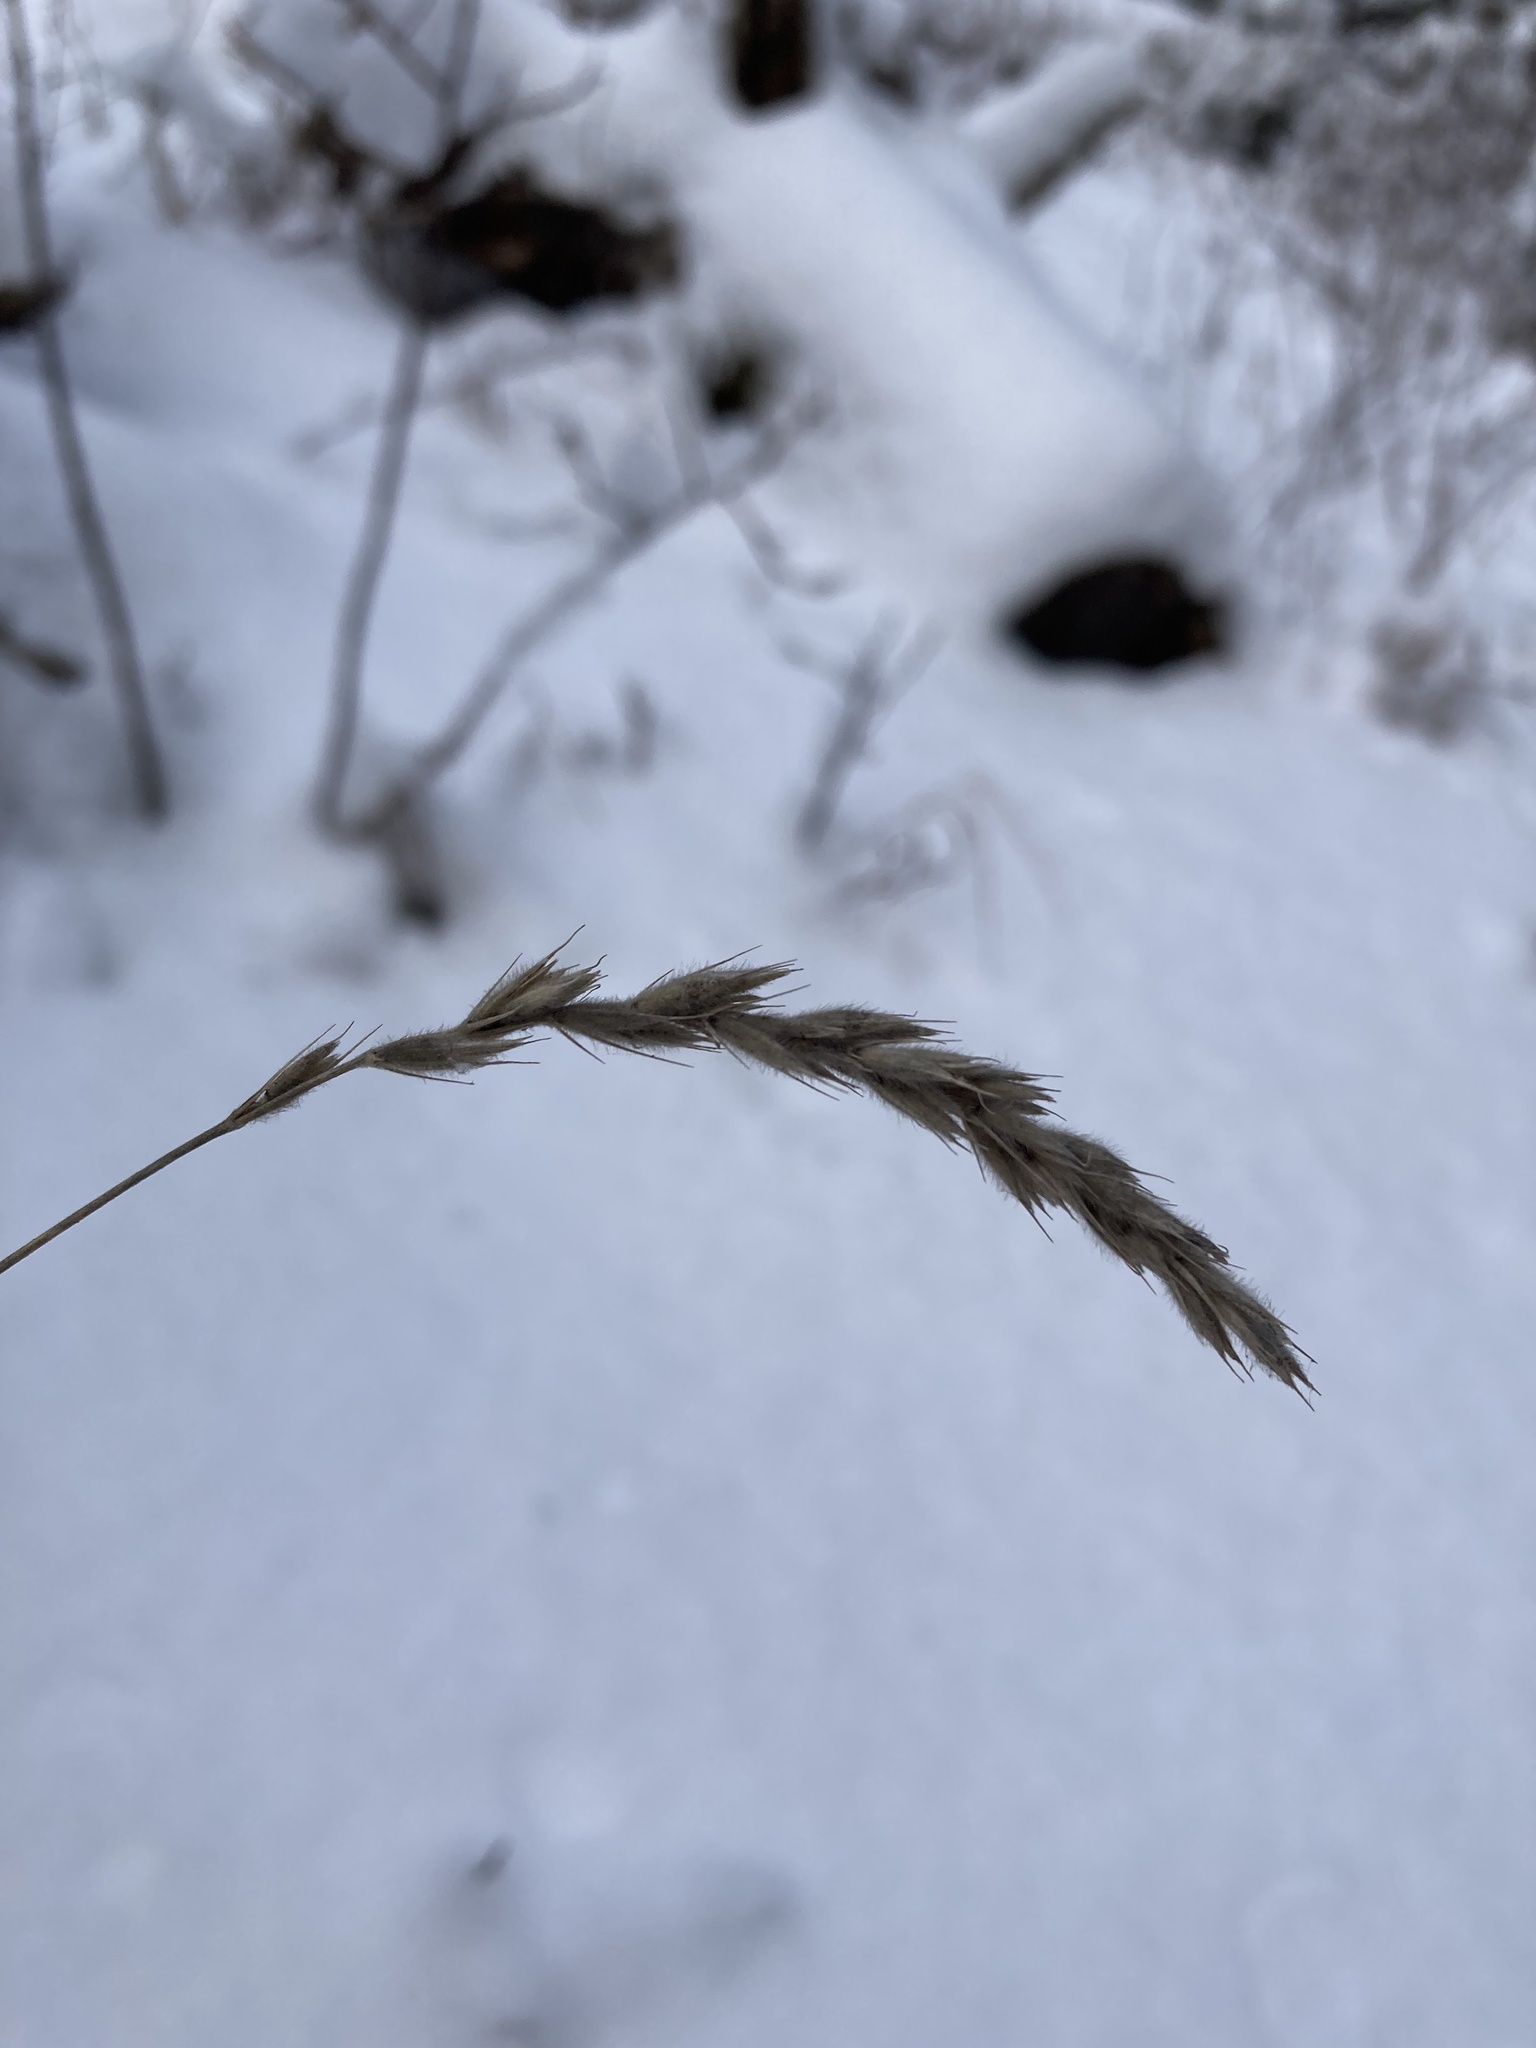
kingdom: Plantae
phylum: Tracheophyta
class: Liliopsida
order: Poales
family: Poaceae
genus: Leymus
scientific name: Leymus innovatus
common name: Boreal wild rye
